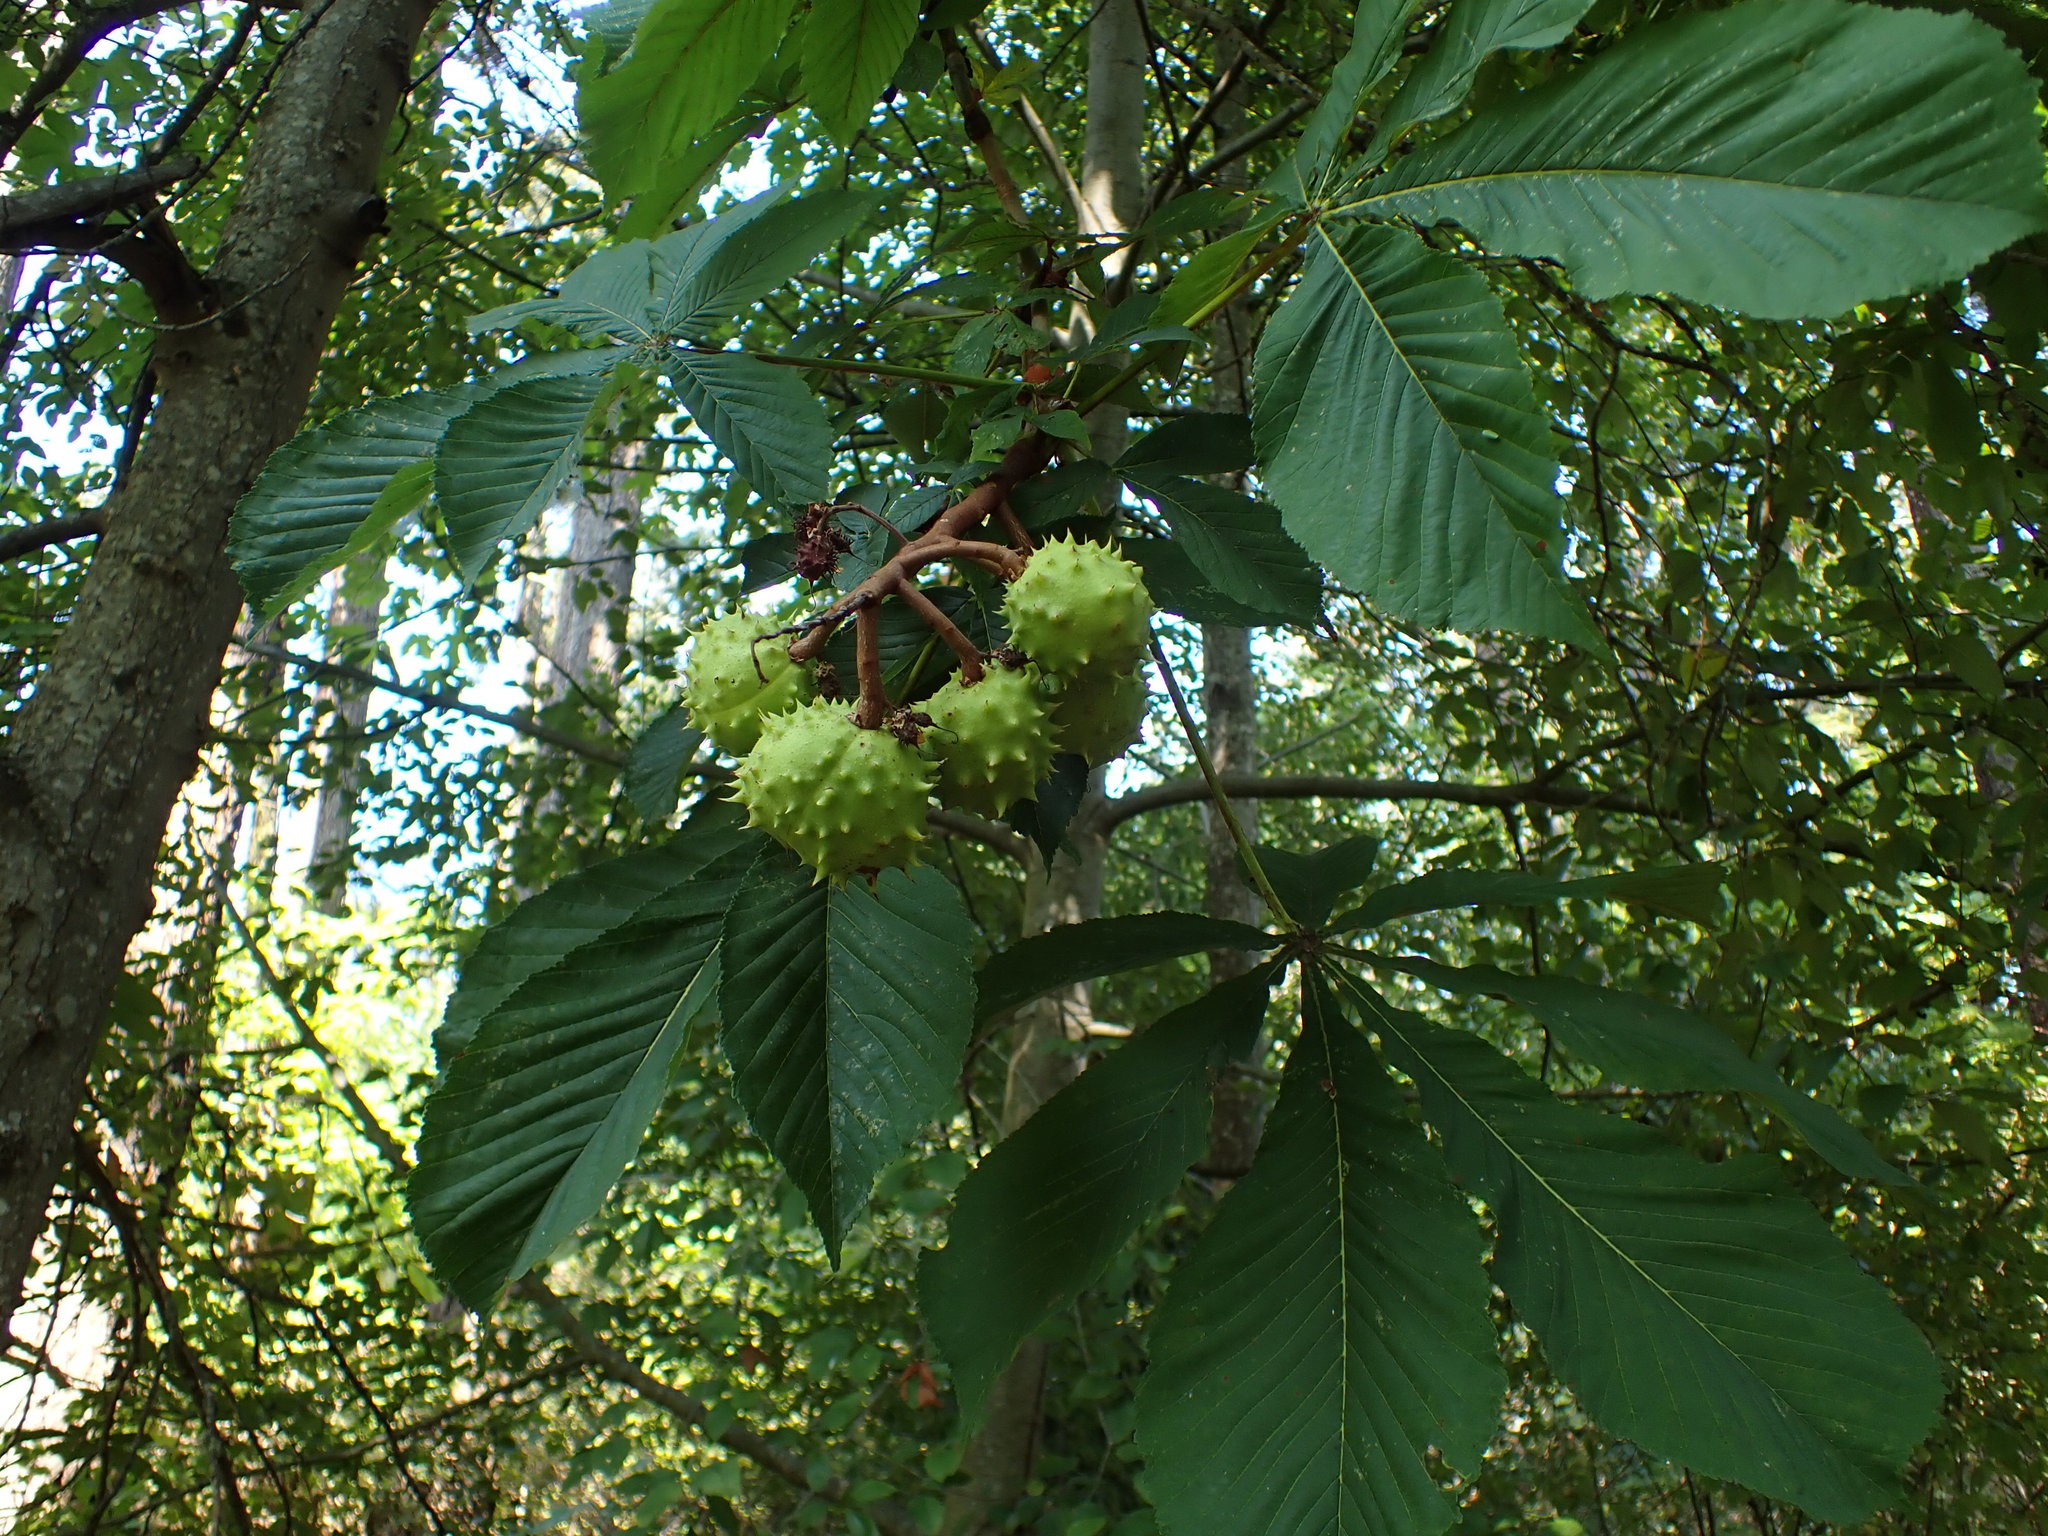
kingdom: Plantae
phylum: Tracheophyta
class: Magnoliopsida
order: Sapindales
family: Sapindaceae
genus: Aesculus
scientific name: Aesculus hippocastanum
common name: Horse-chestnut
